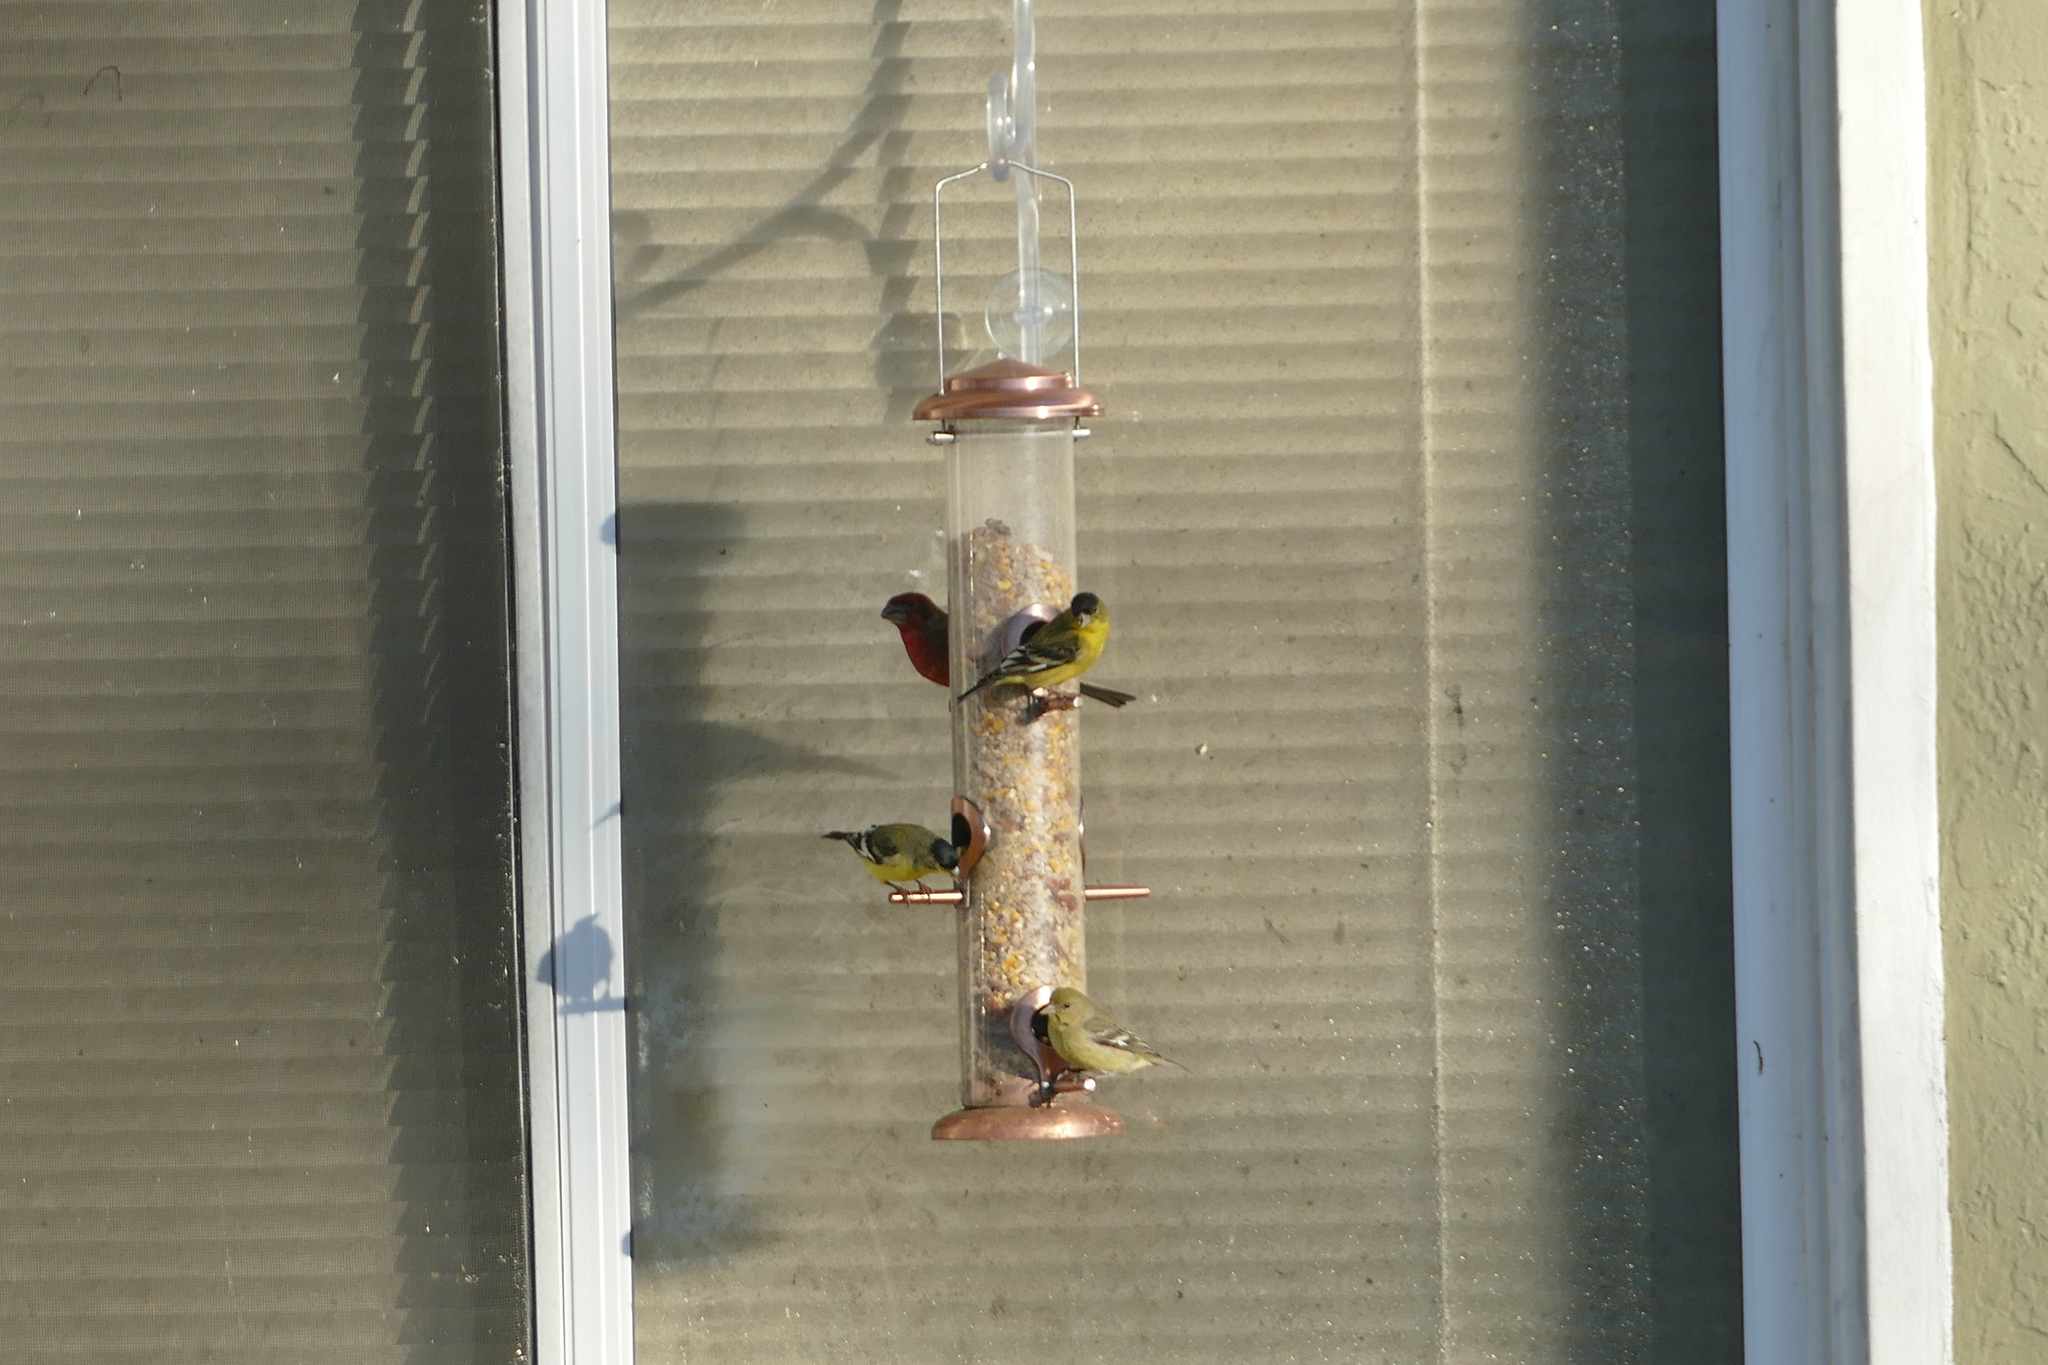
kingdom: Animalia
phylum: Chordata
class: Aves
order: Passeriformes
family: Fringillidae
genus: Spinus
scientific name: Spinus psaltria
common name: Lesser goldfinch
